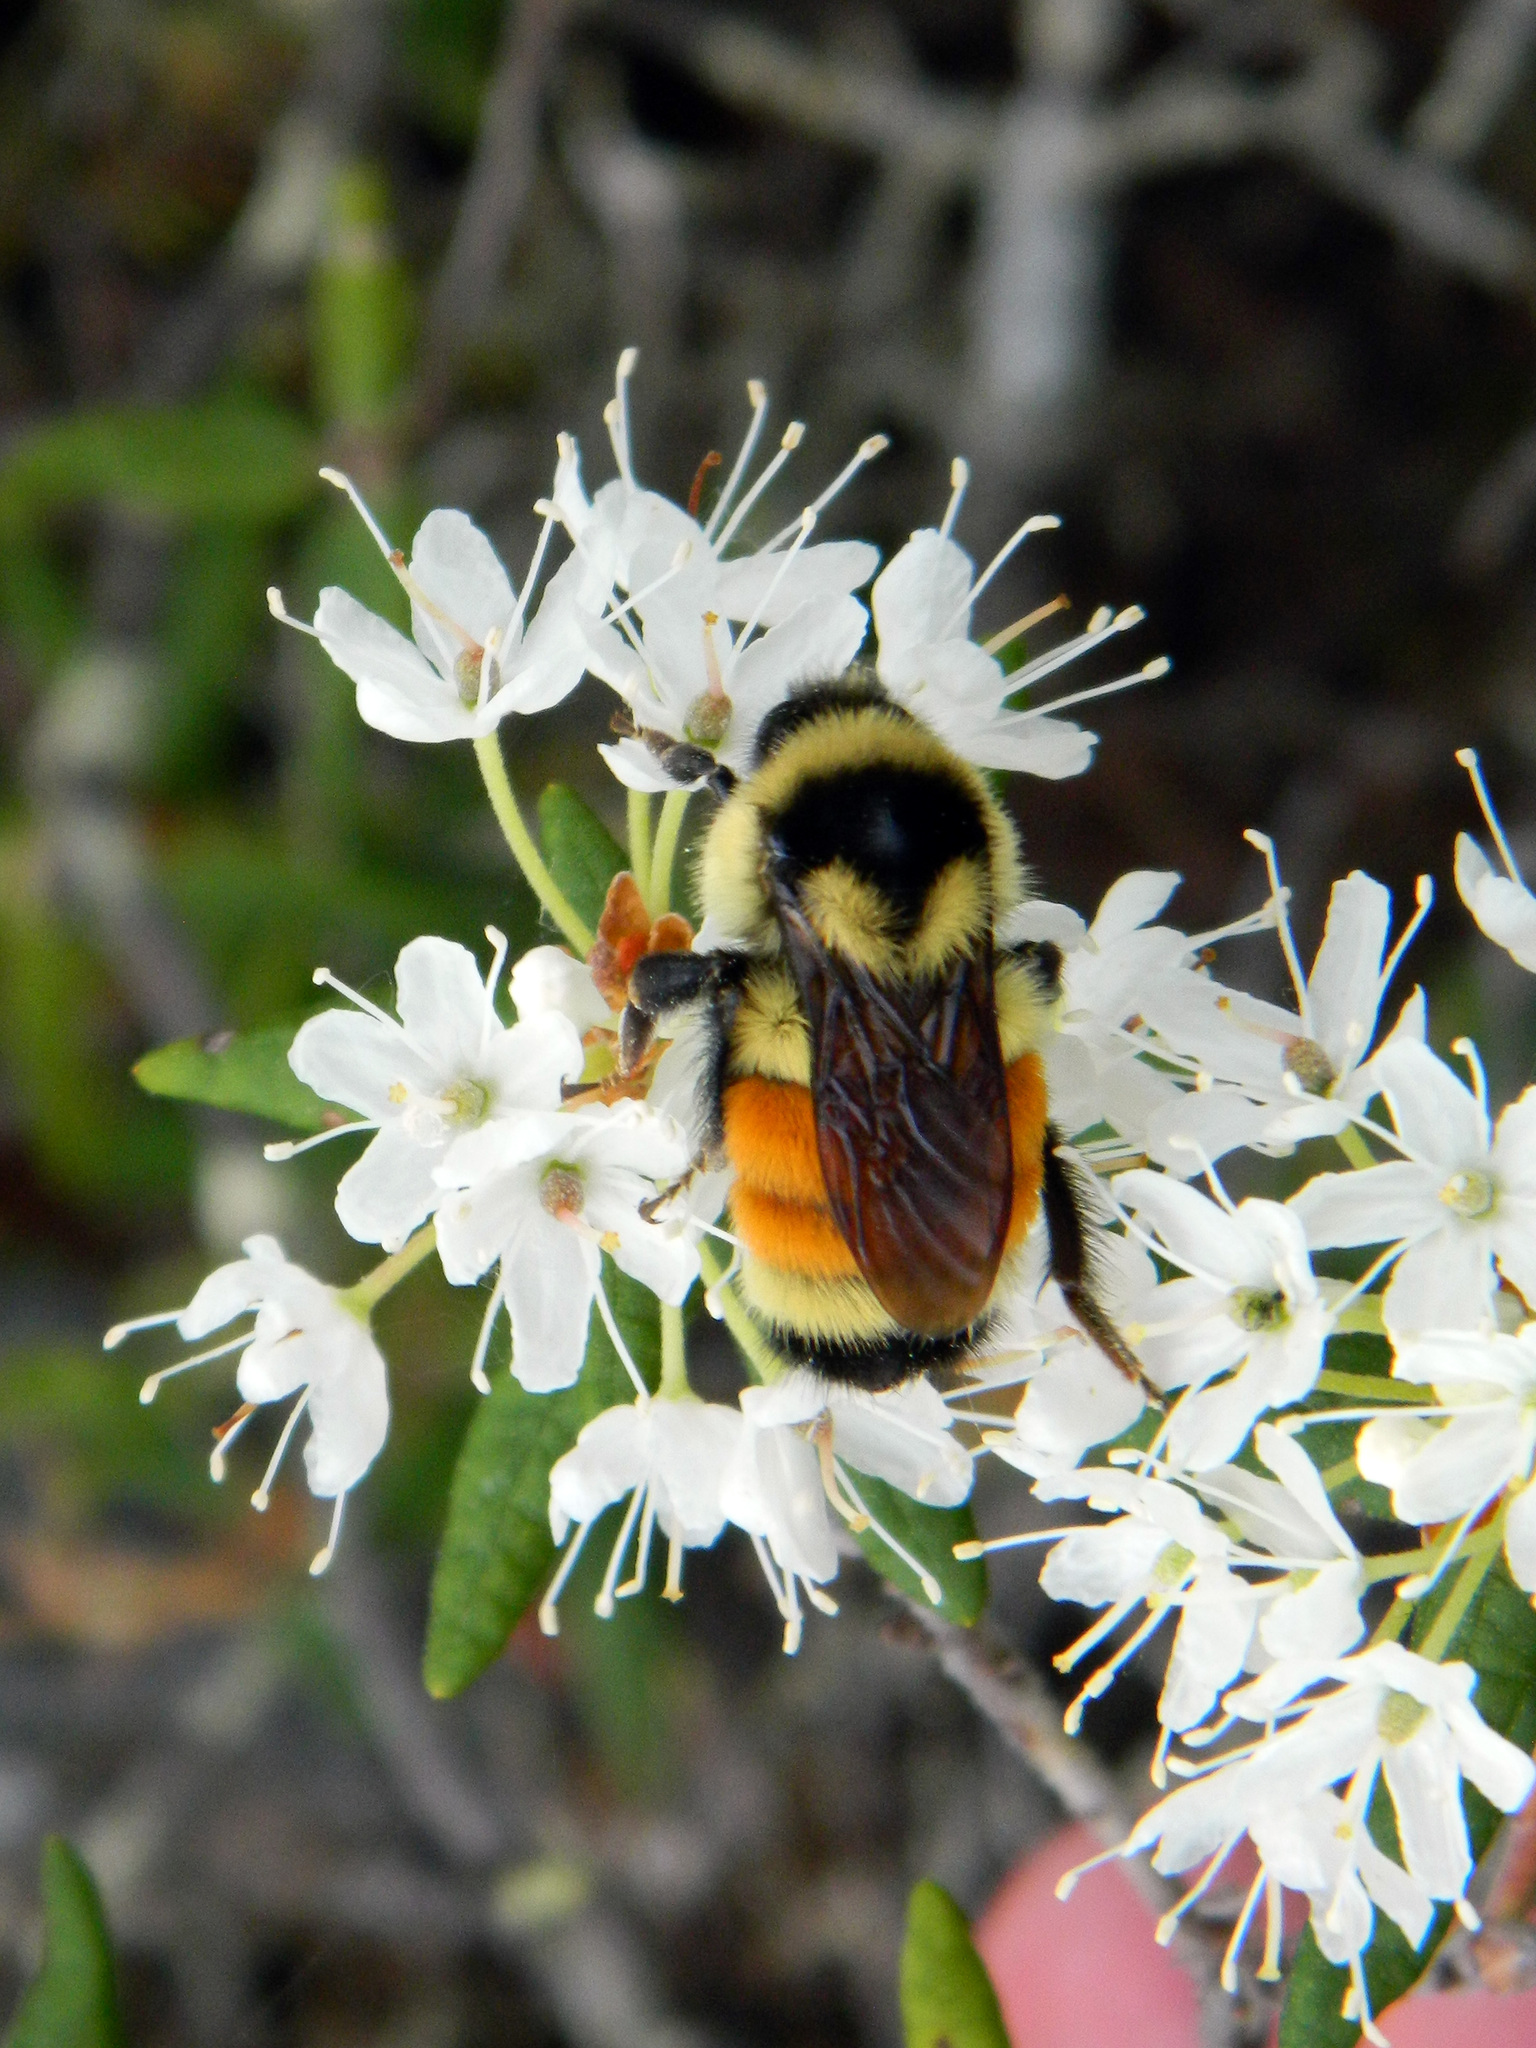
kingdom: Animalia
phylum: Arthropoda
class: Insecta
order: Hymenoptera
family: Apidae
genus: Bombus
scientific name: Bombus ternarius
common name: Tri-colored bumble bee
